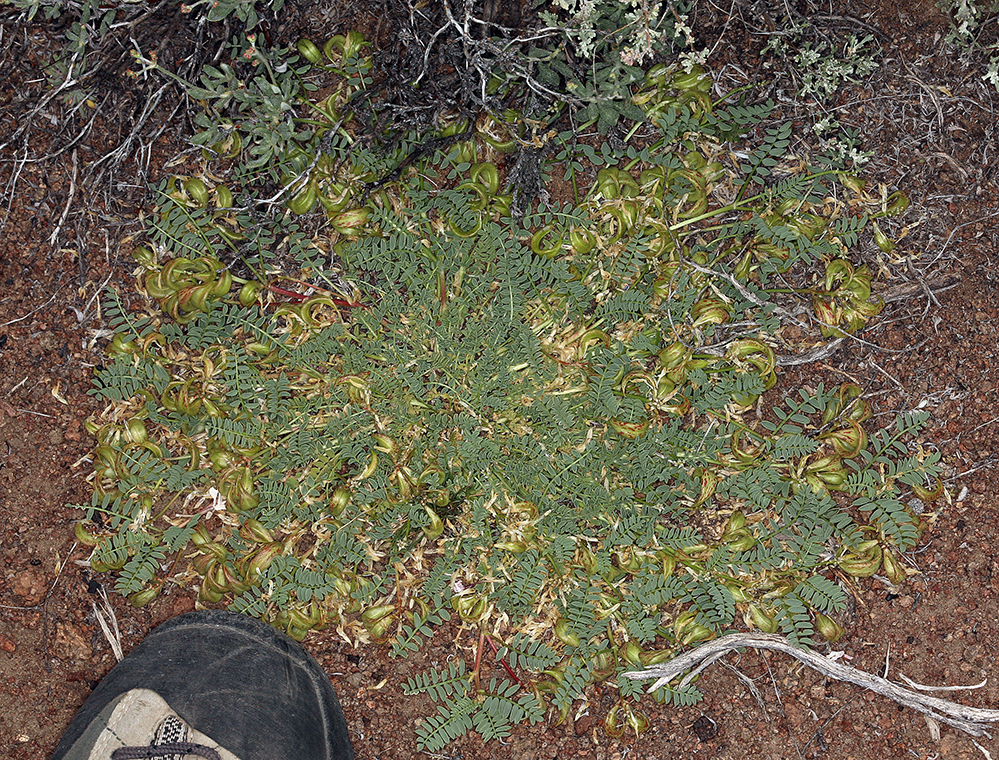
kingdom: Plantae
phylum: Tracheophyta
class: Magnoliopsida
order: Fabales
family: Fabaceae
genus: Astragalus
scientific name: Astragalus lentiginosus
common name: Freckled milkvetch
